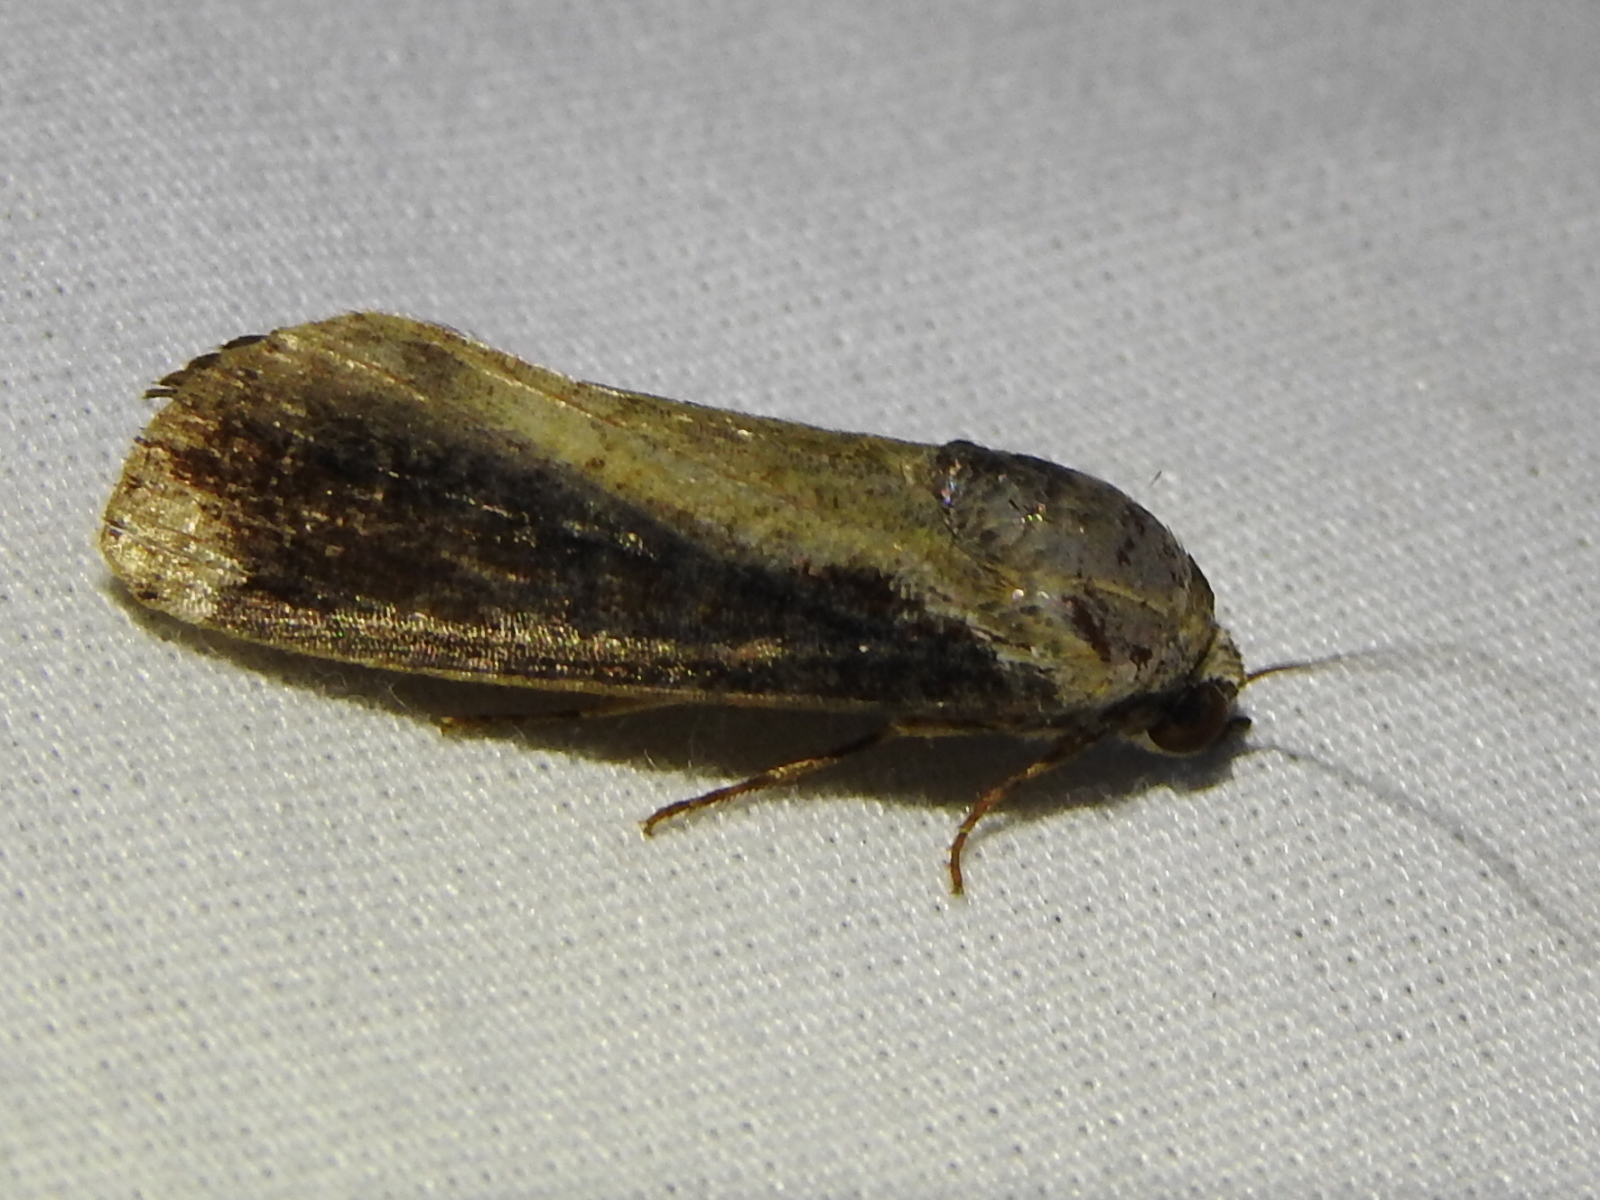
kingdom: Animalia
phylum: Arthropoda
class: Insecta
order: Lepidoptera
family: Noctuidae
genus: Magusa
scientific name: Magusa divaricata
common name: Orb narrow-winged moth
